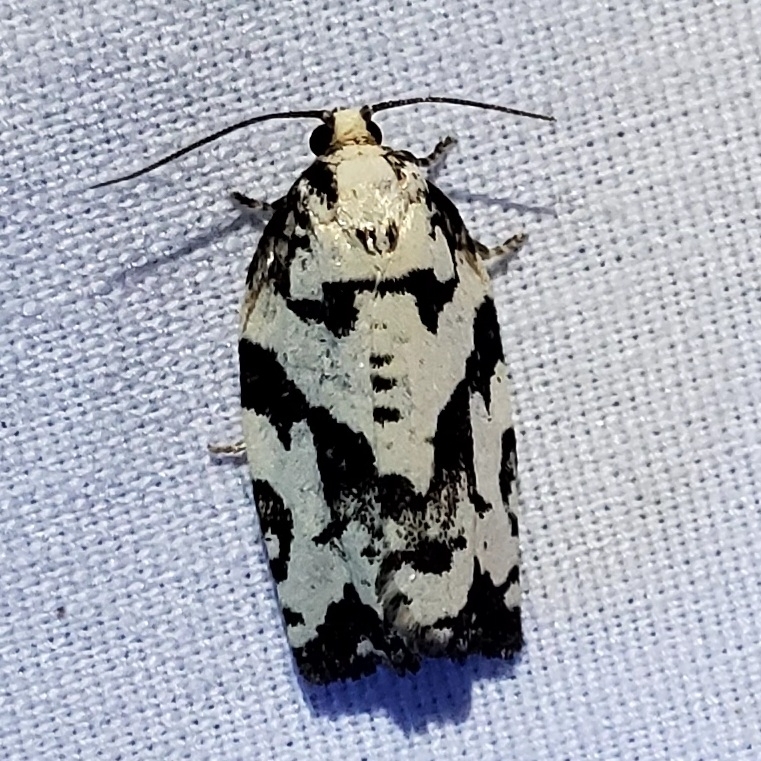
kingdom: Animalia
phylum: Arthropoda
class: Insecta
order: Lepidoptera
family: Tortricidae
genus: Archips
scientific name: Archips dissitana
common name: Boldly-marked archips moth
